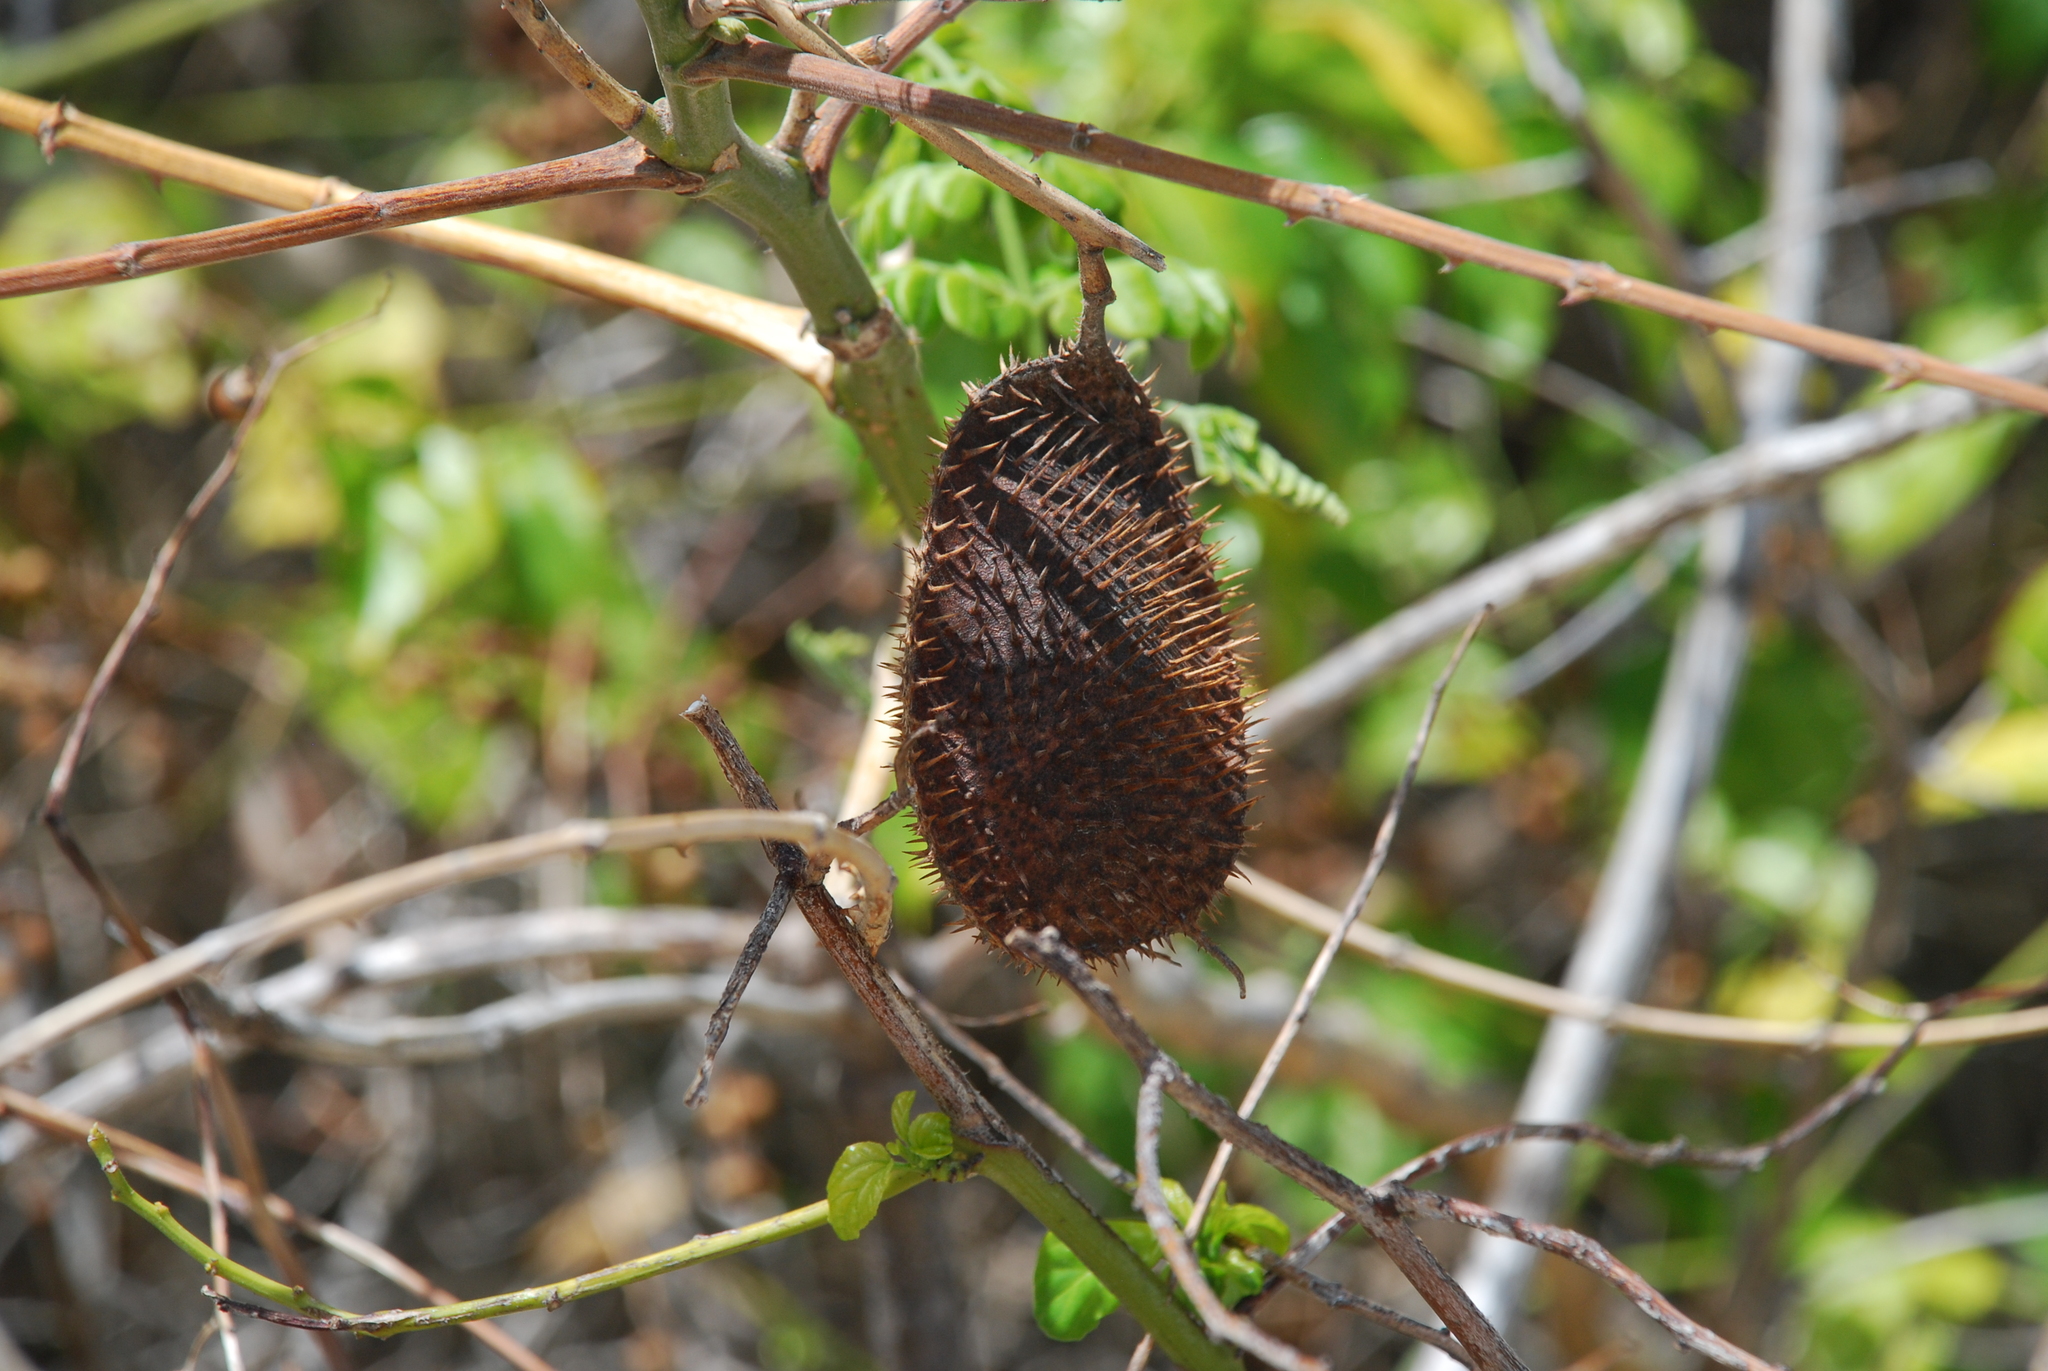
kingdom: Plantae
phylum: Tracheophyta
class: Magnoliopsida
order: Fabales
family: Fabaceae
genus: Guilandina
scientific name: Guilandina bonduc
